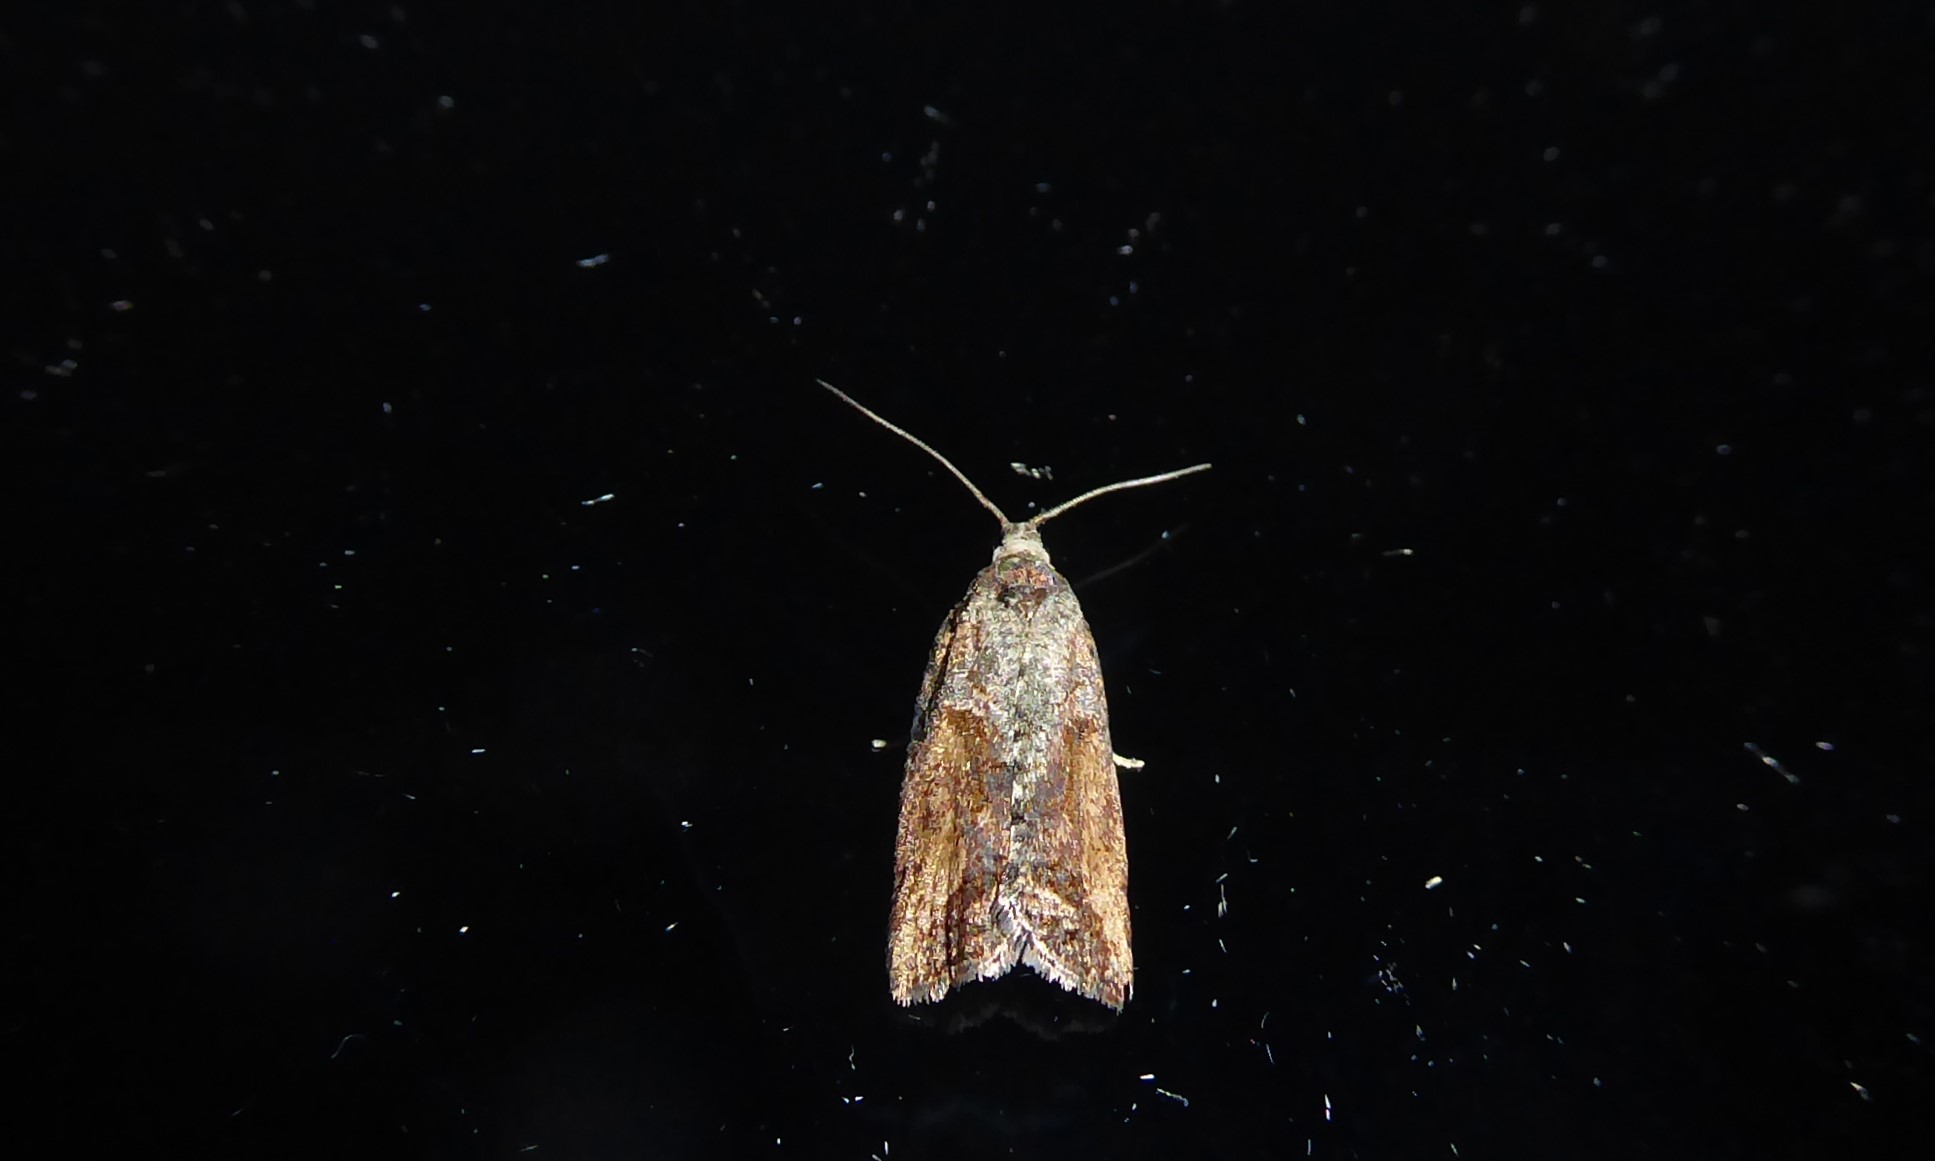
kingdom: Animalia
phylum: Arthropoda
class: Insecta
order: Lepidoptera
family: Tortricidae
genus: Harmologa
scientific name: Harmologa oblongana
